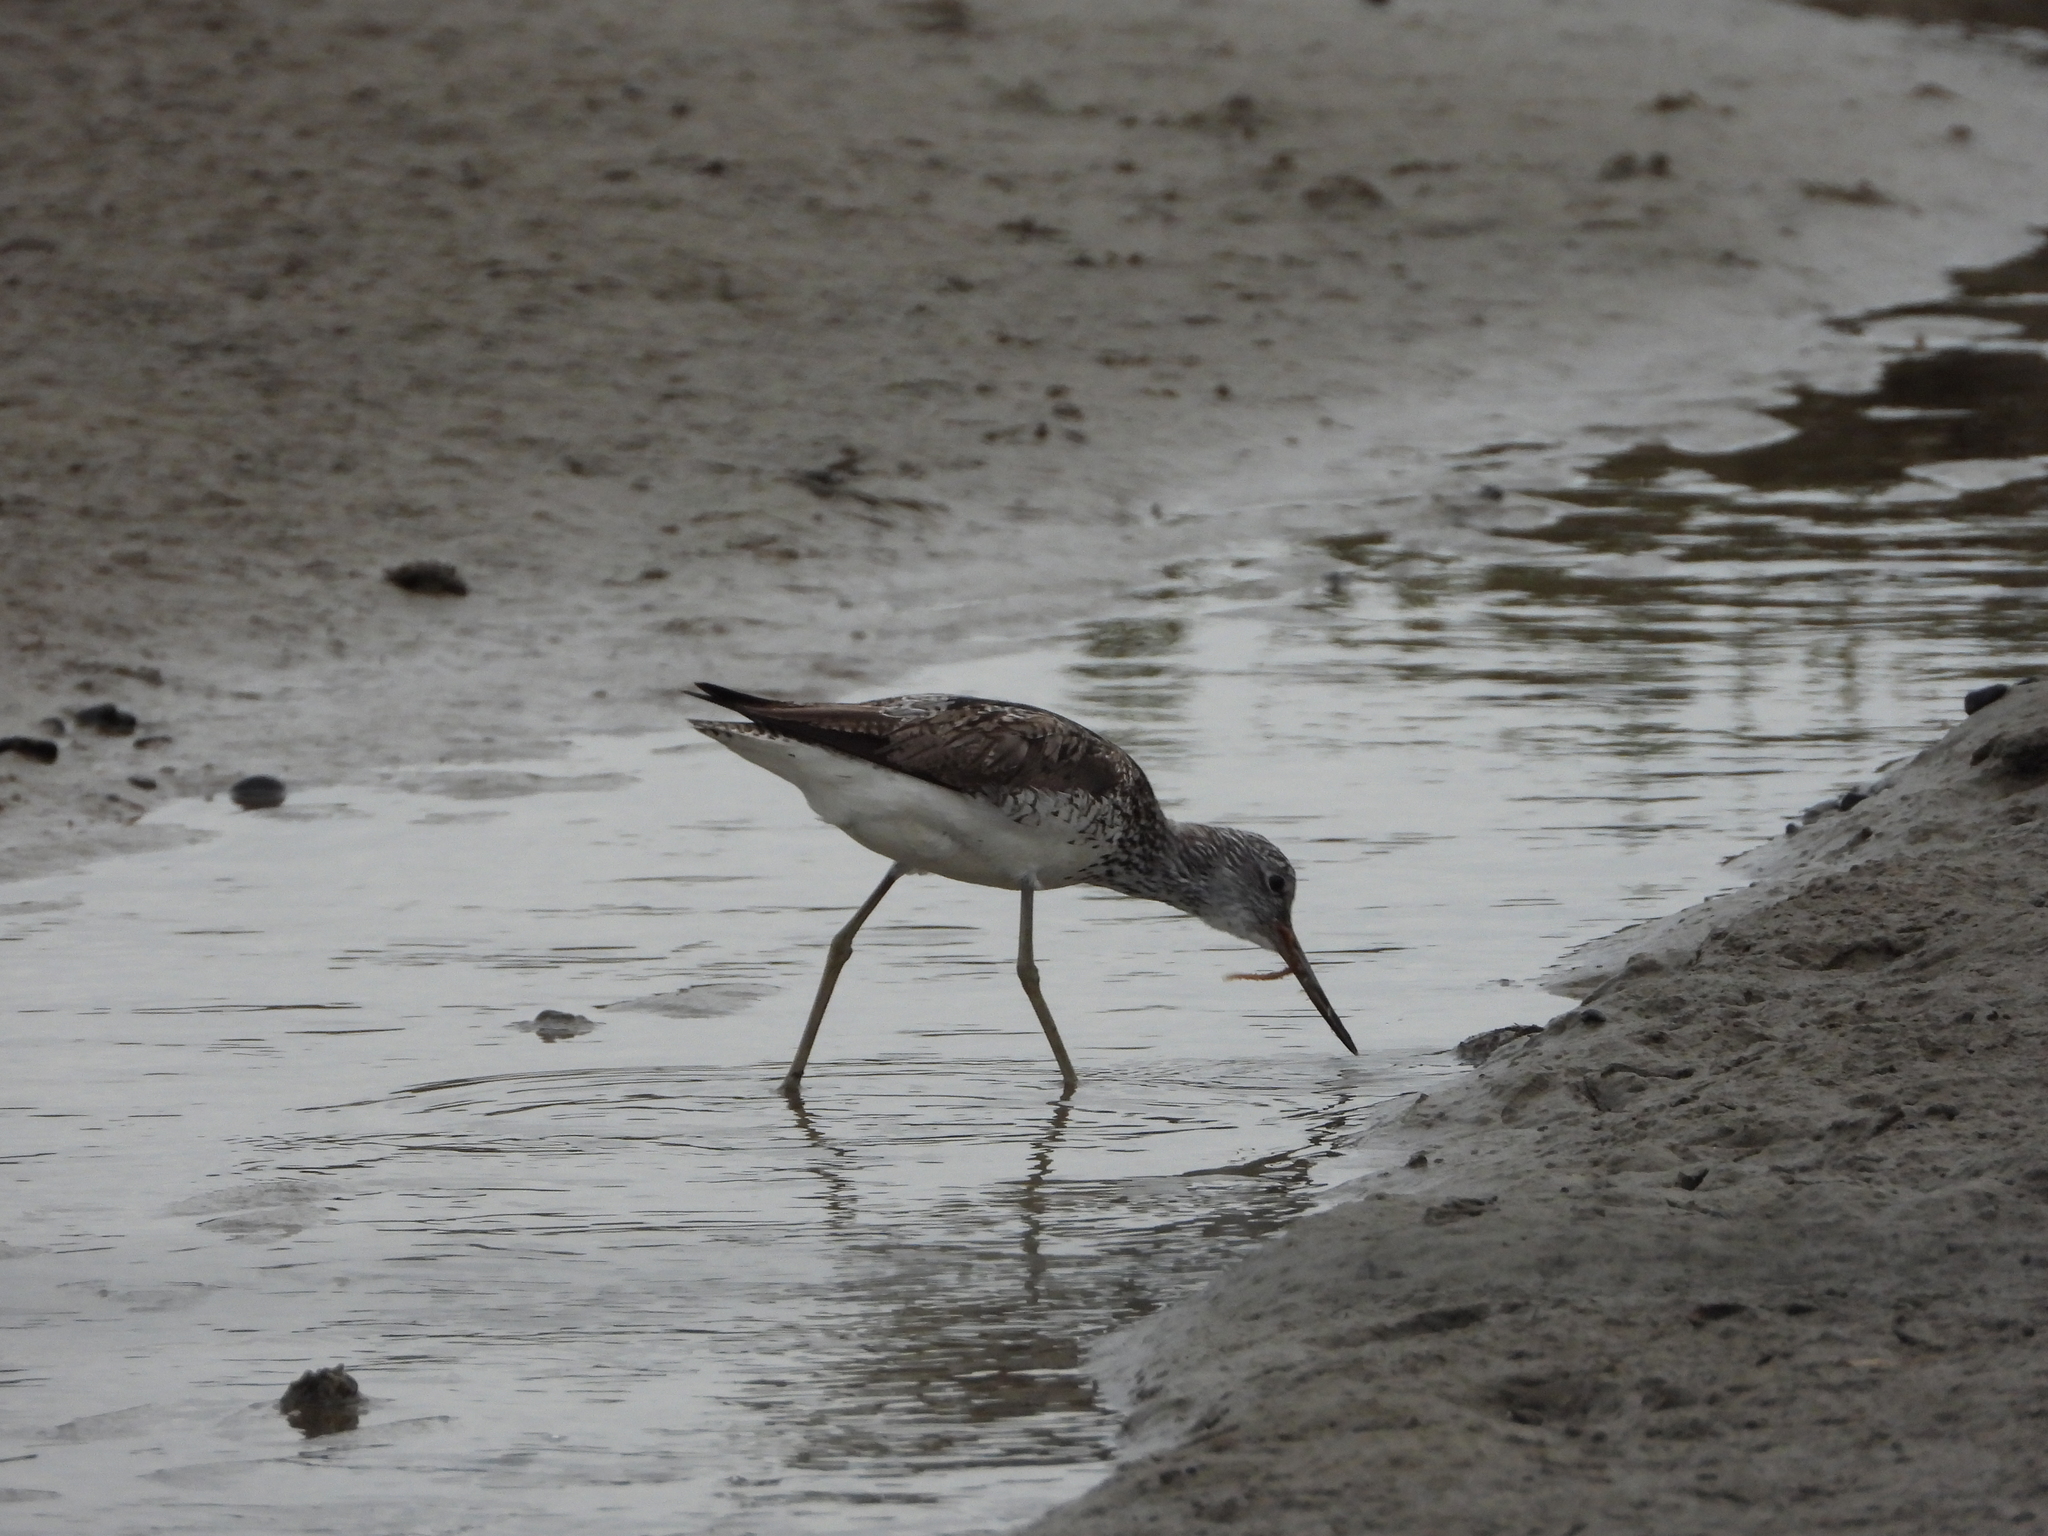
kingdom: Animalia
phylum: Chordata
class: Aves
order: Charadriiformes
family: Scolopacidae
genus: Tringa
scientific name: Tringa nebularia
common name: Common greenshank
